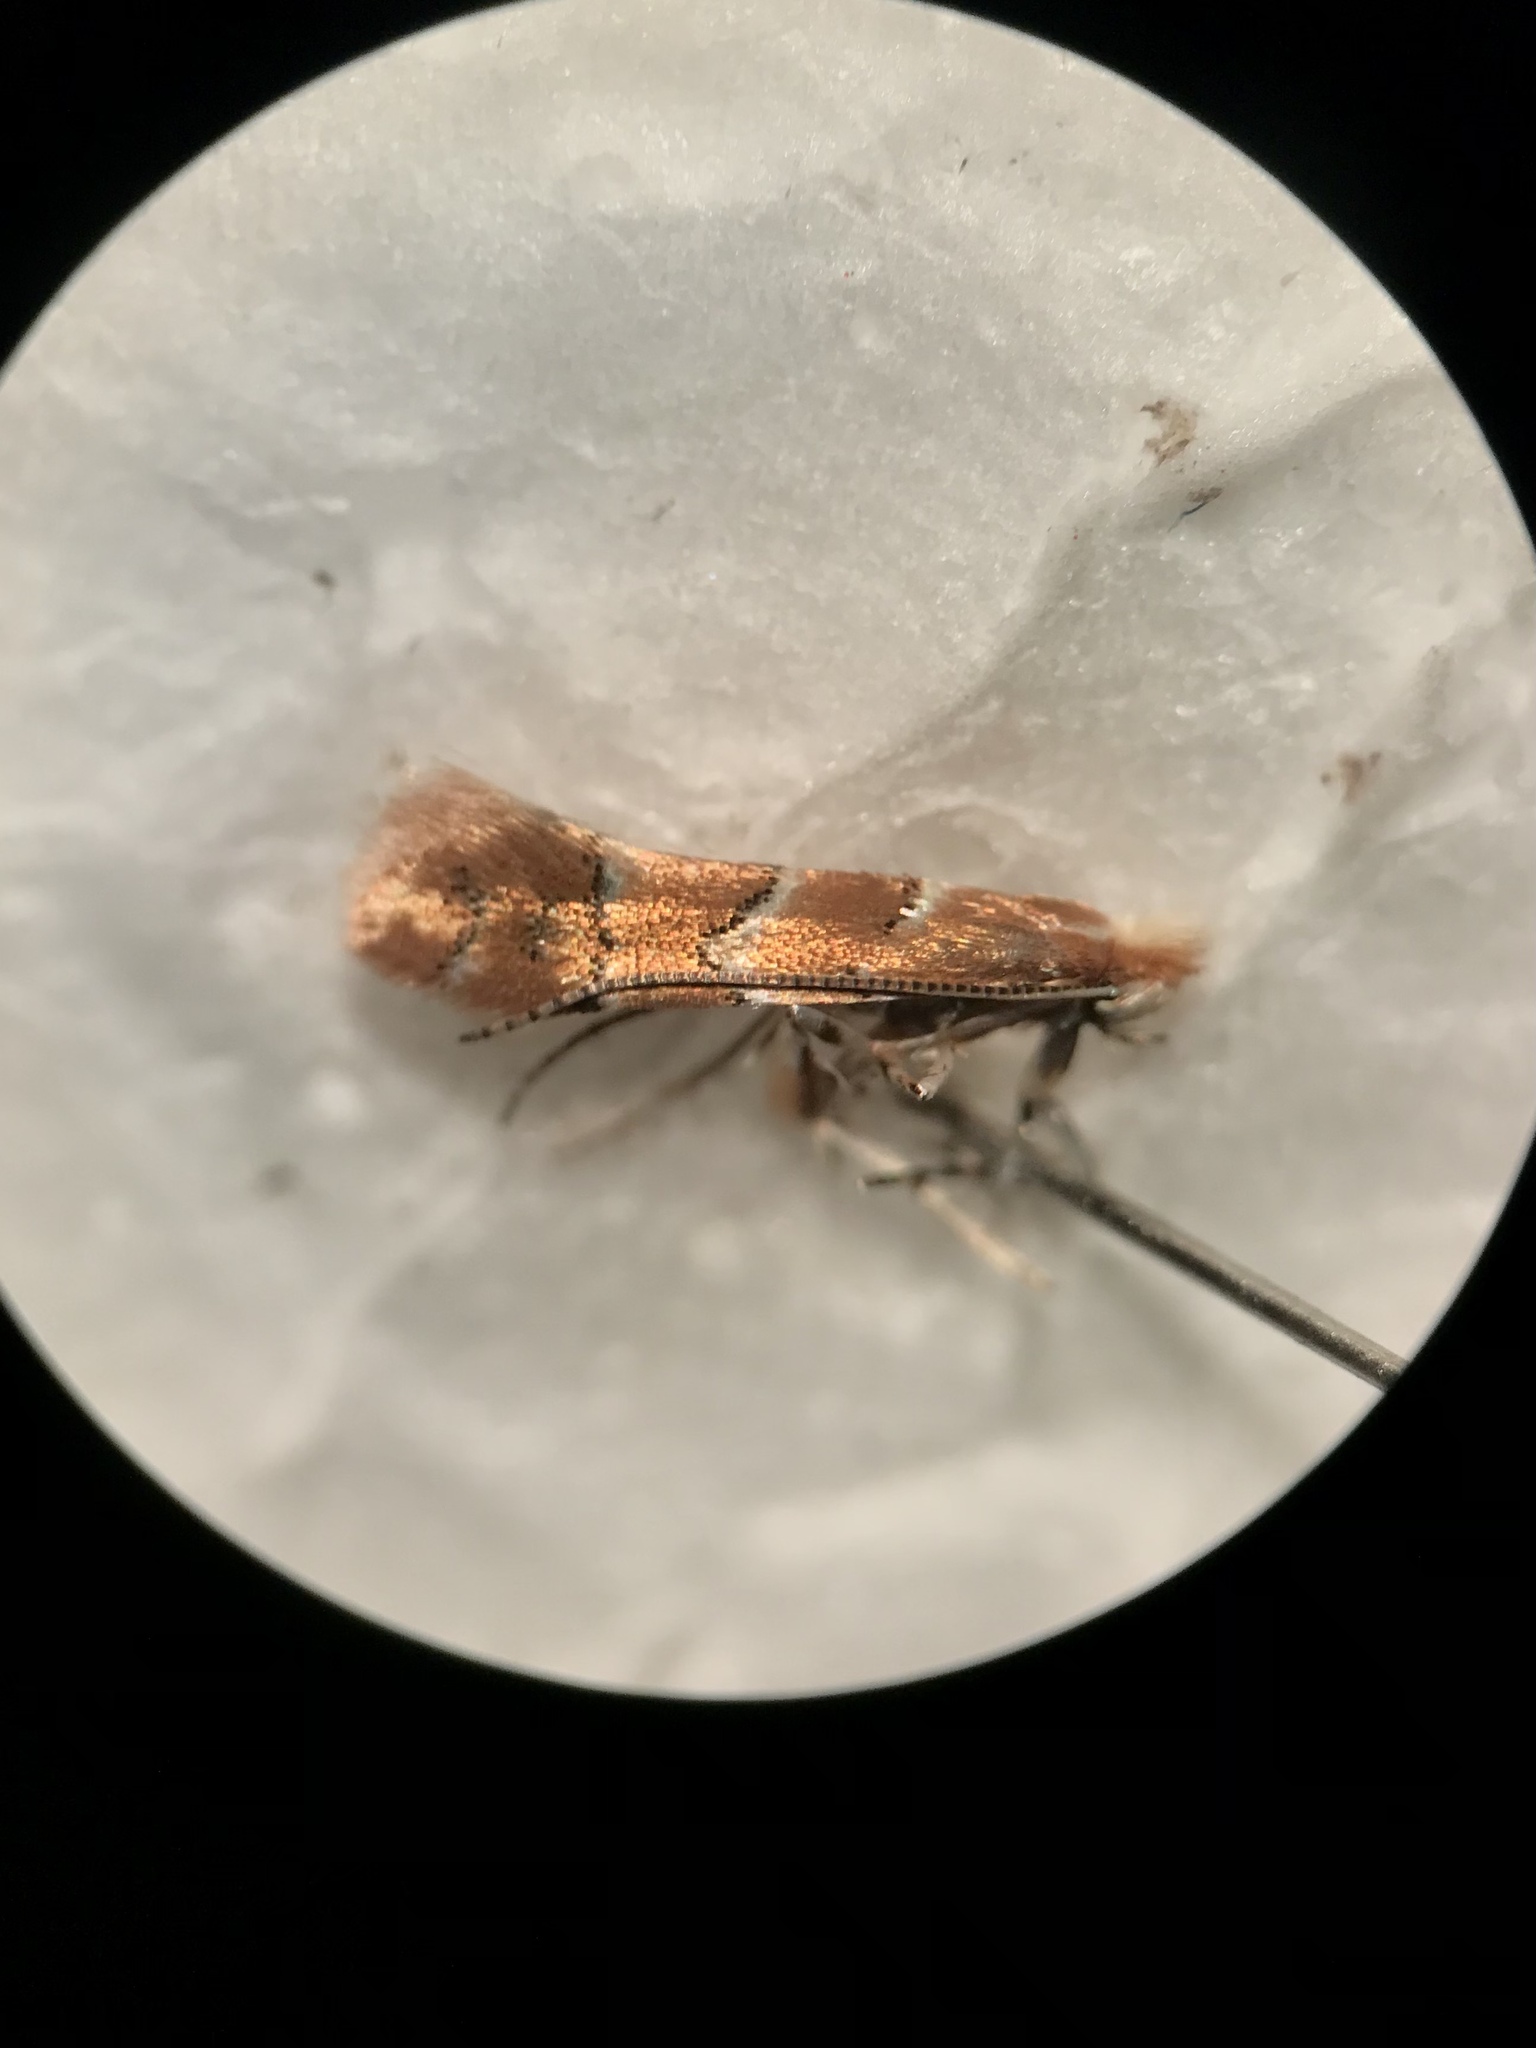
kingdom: Animalia
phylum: Arthropoda
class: Insecta
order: Lepidoptera
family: Gracillariidae
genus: Cameraria
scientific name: Cameraria fletcherella
